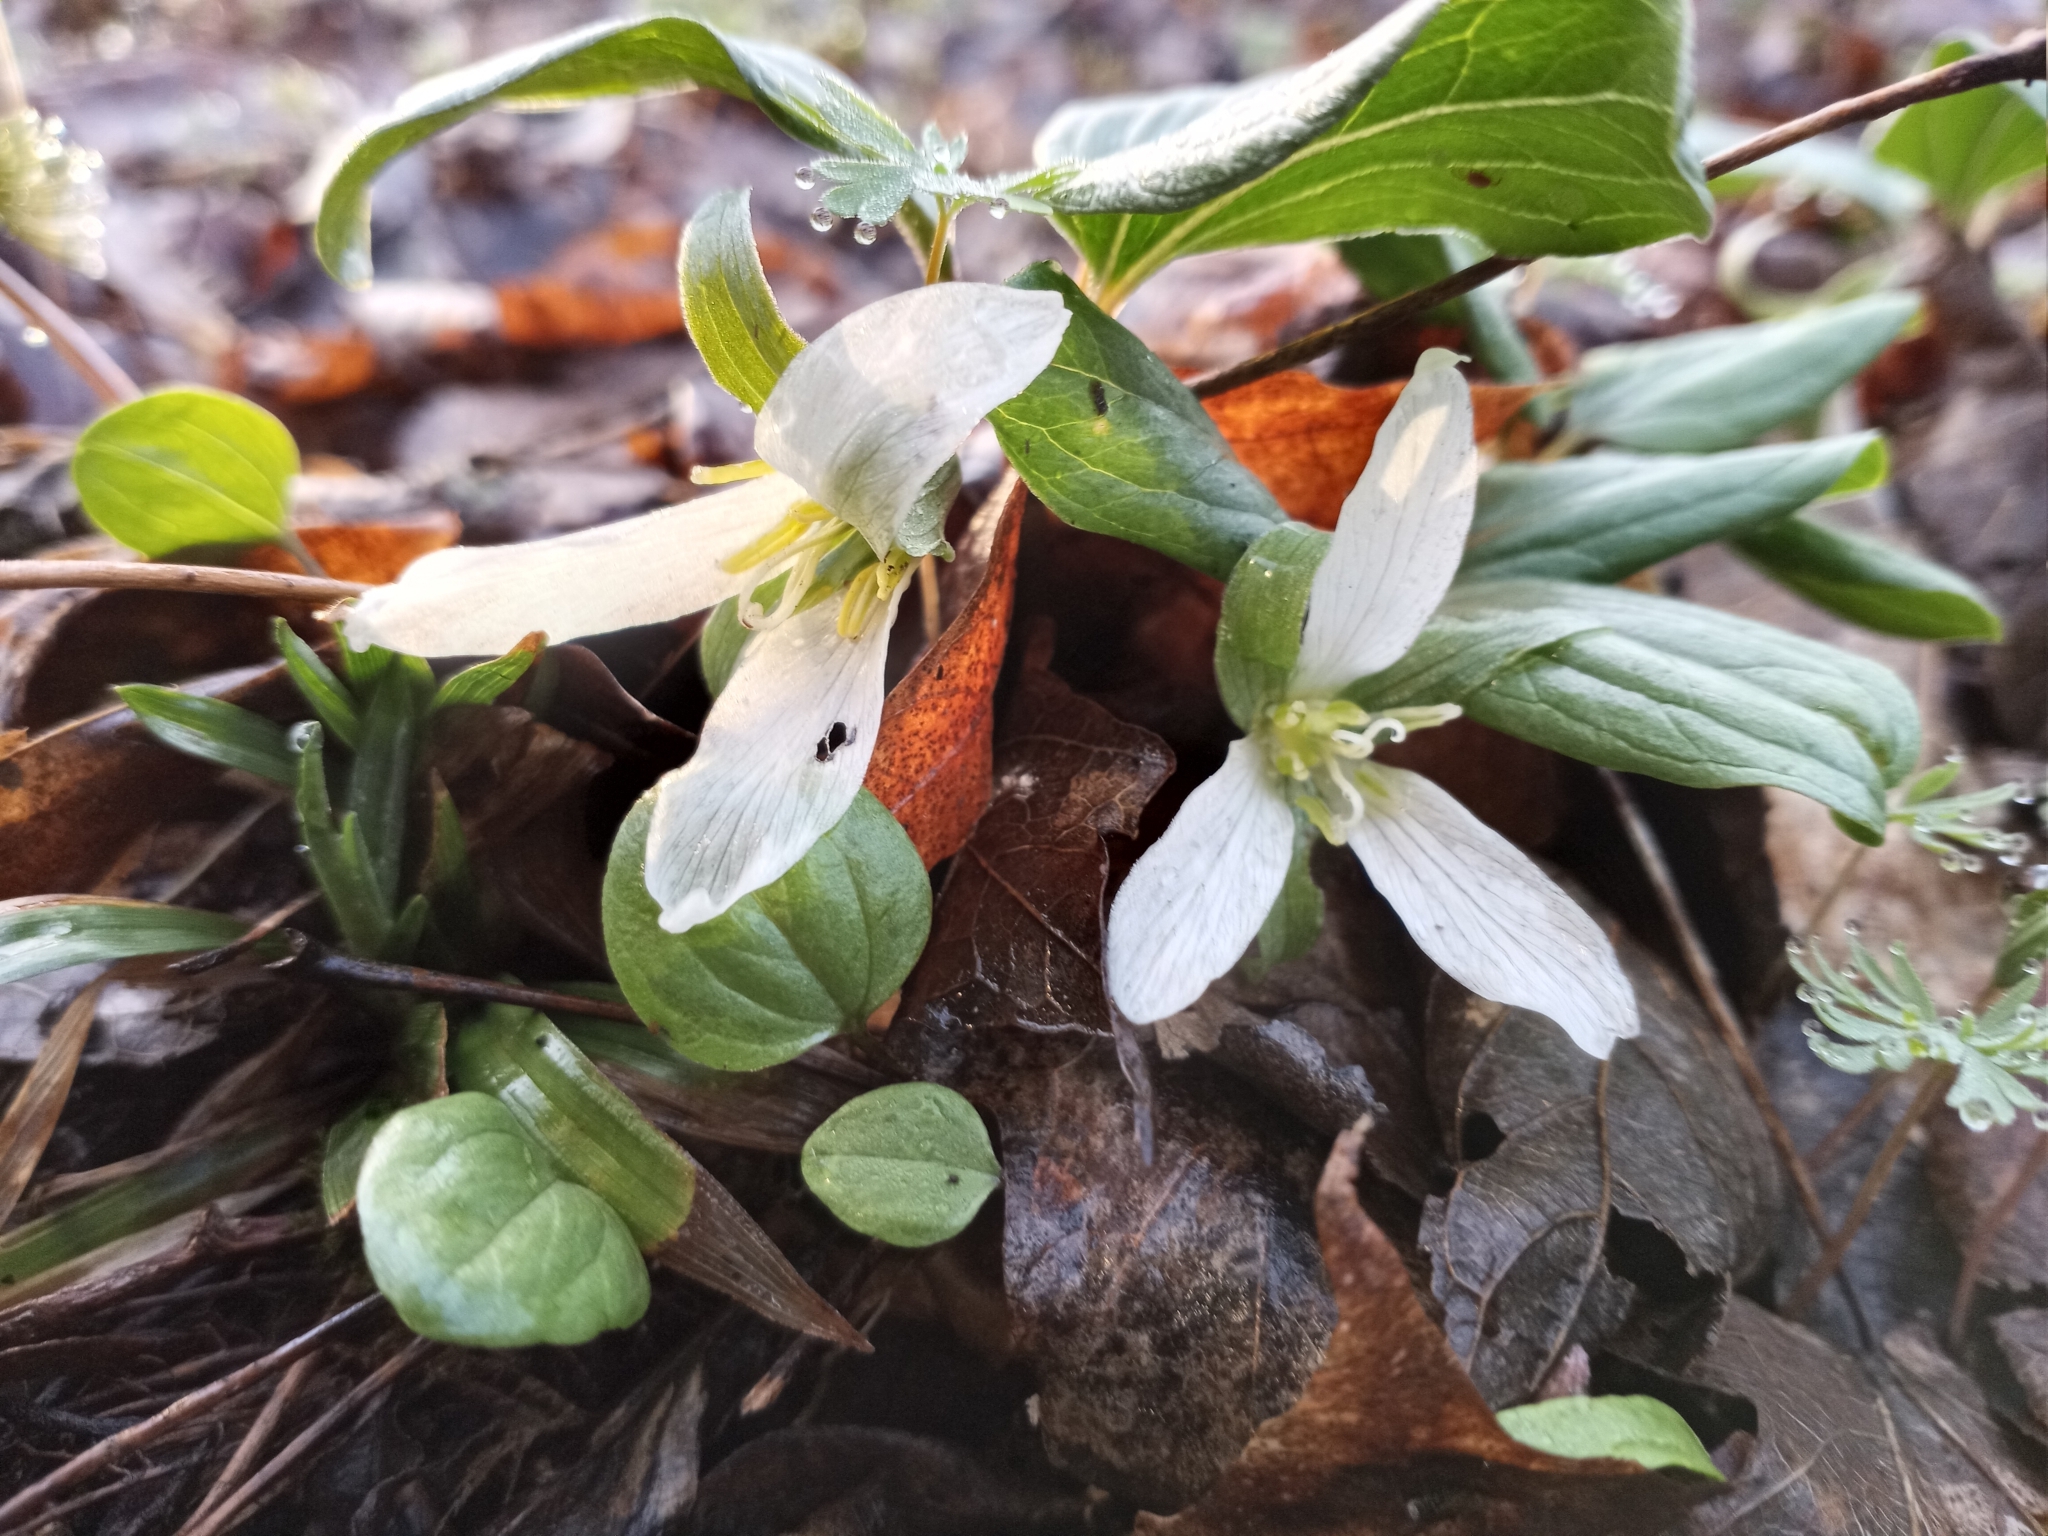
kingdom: Plantae
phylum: Tracheophyta
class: Liliopsida
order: Liliales
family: Melanthiaceae
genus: Trillium
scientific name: Trillium nivale
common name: Dwarf white trillium
